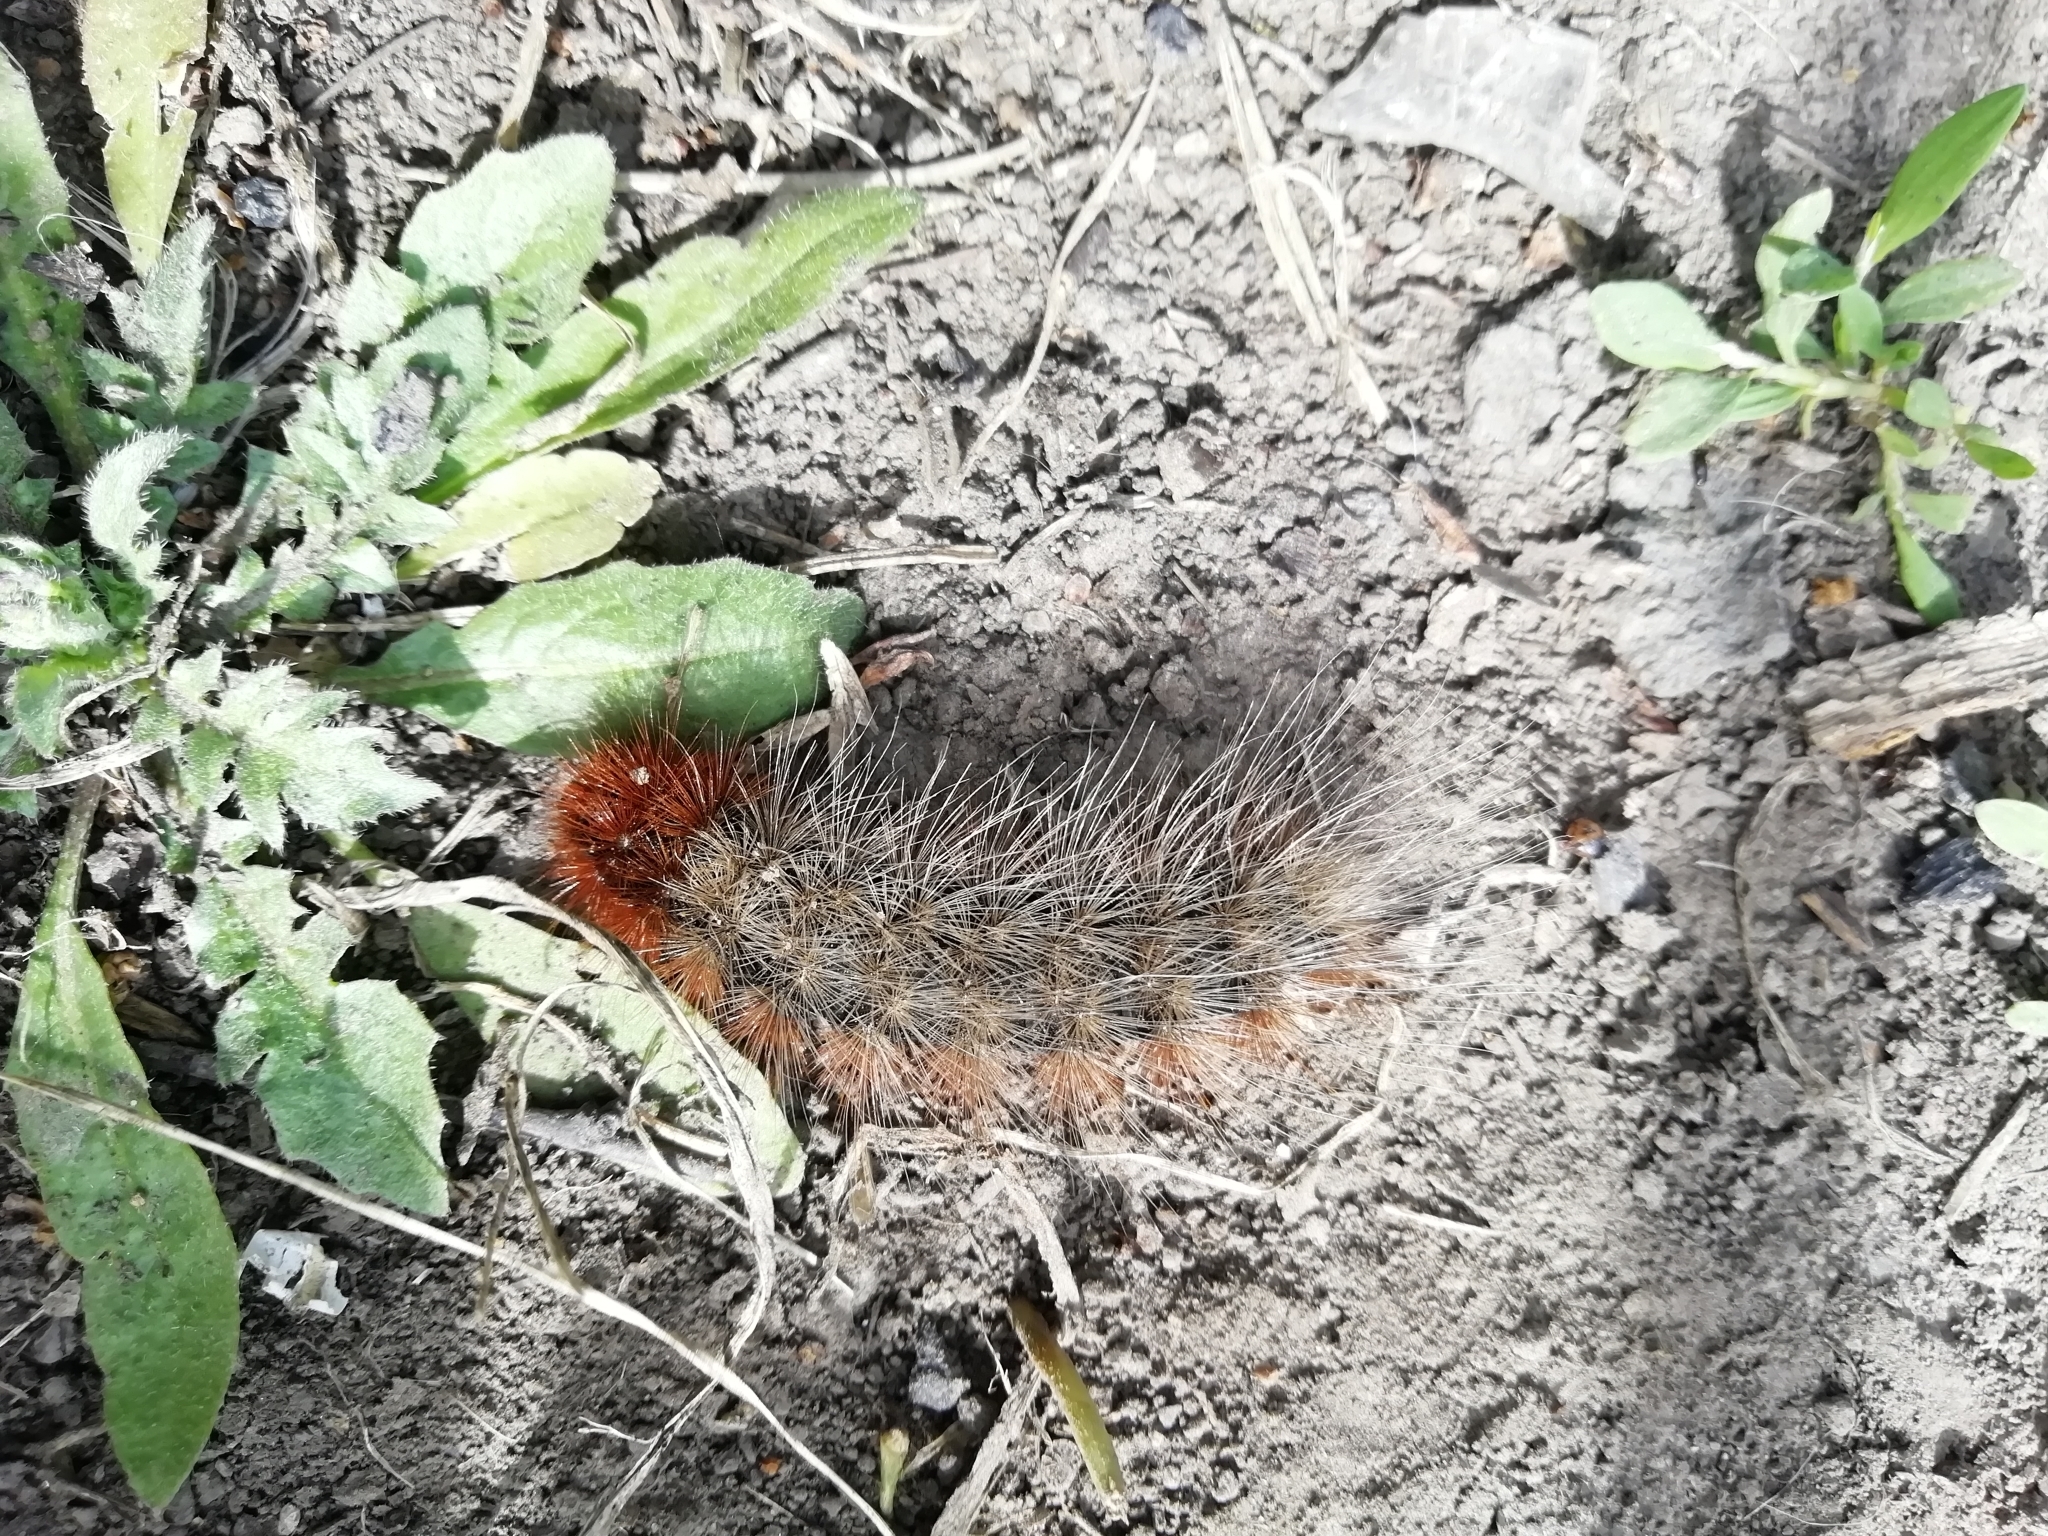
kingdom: Animalia
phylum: Arthropoda
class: Insecta
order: Lepidoptera
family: Erebidae
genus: Arctia
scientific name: Arctia caja
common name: Garden tiger
